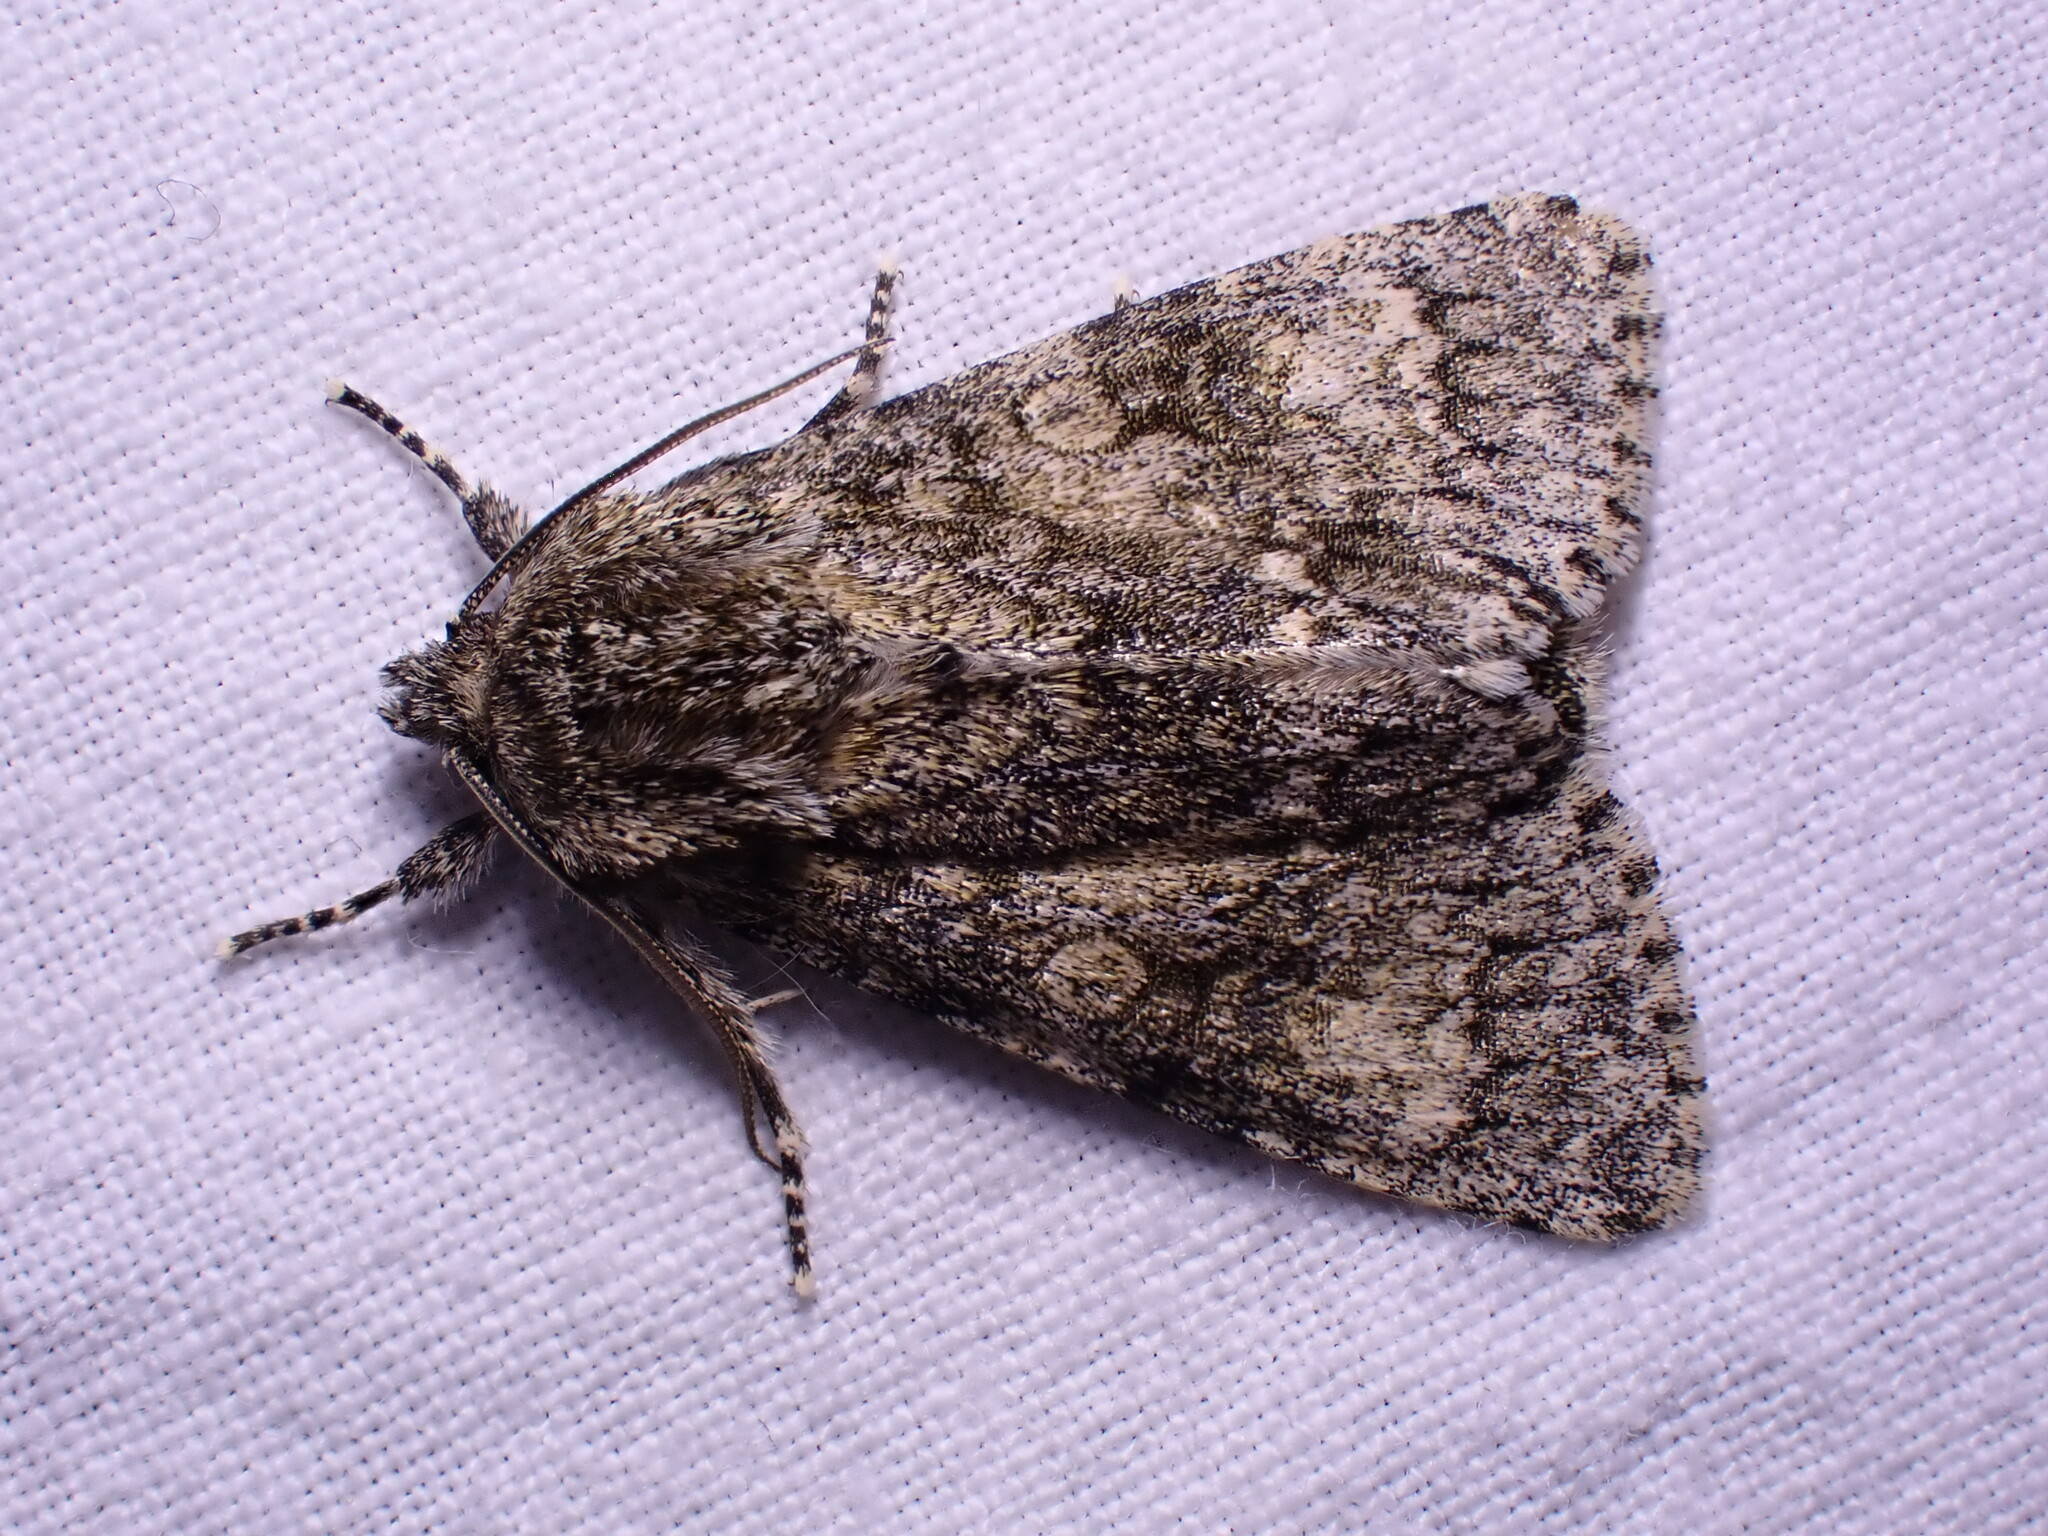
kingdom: Animalia
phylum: Arthropoda
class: Insecta
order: Lepidoptera
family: Noctuidae
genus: Acronicta
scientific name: Acronicta megacephala
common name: Poplar grey
